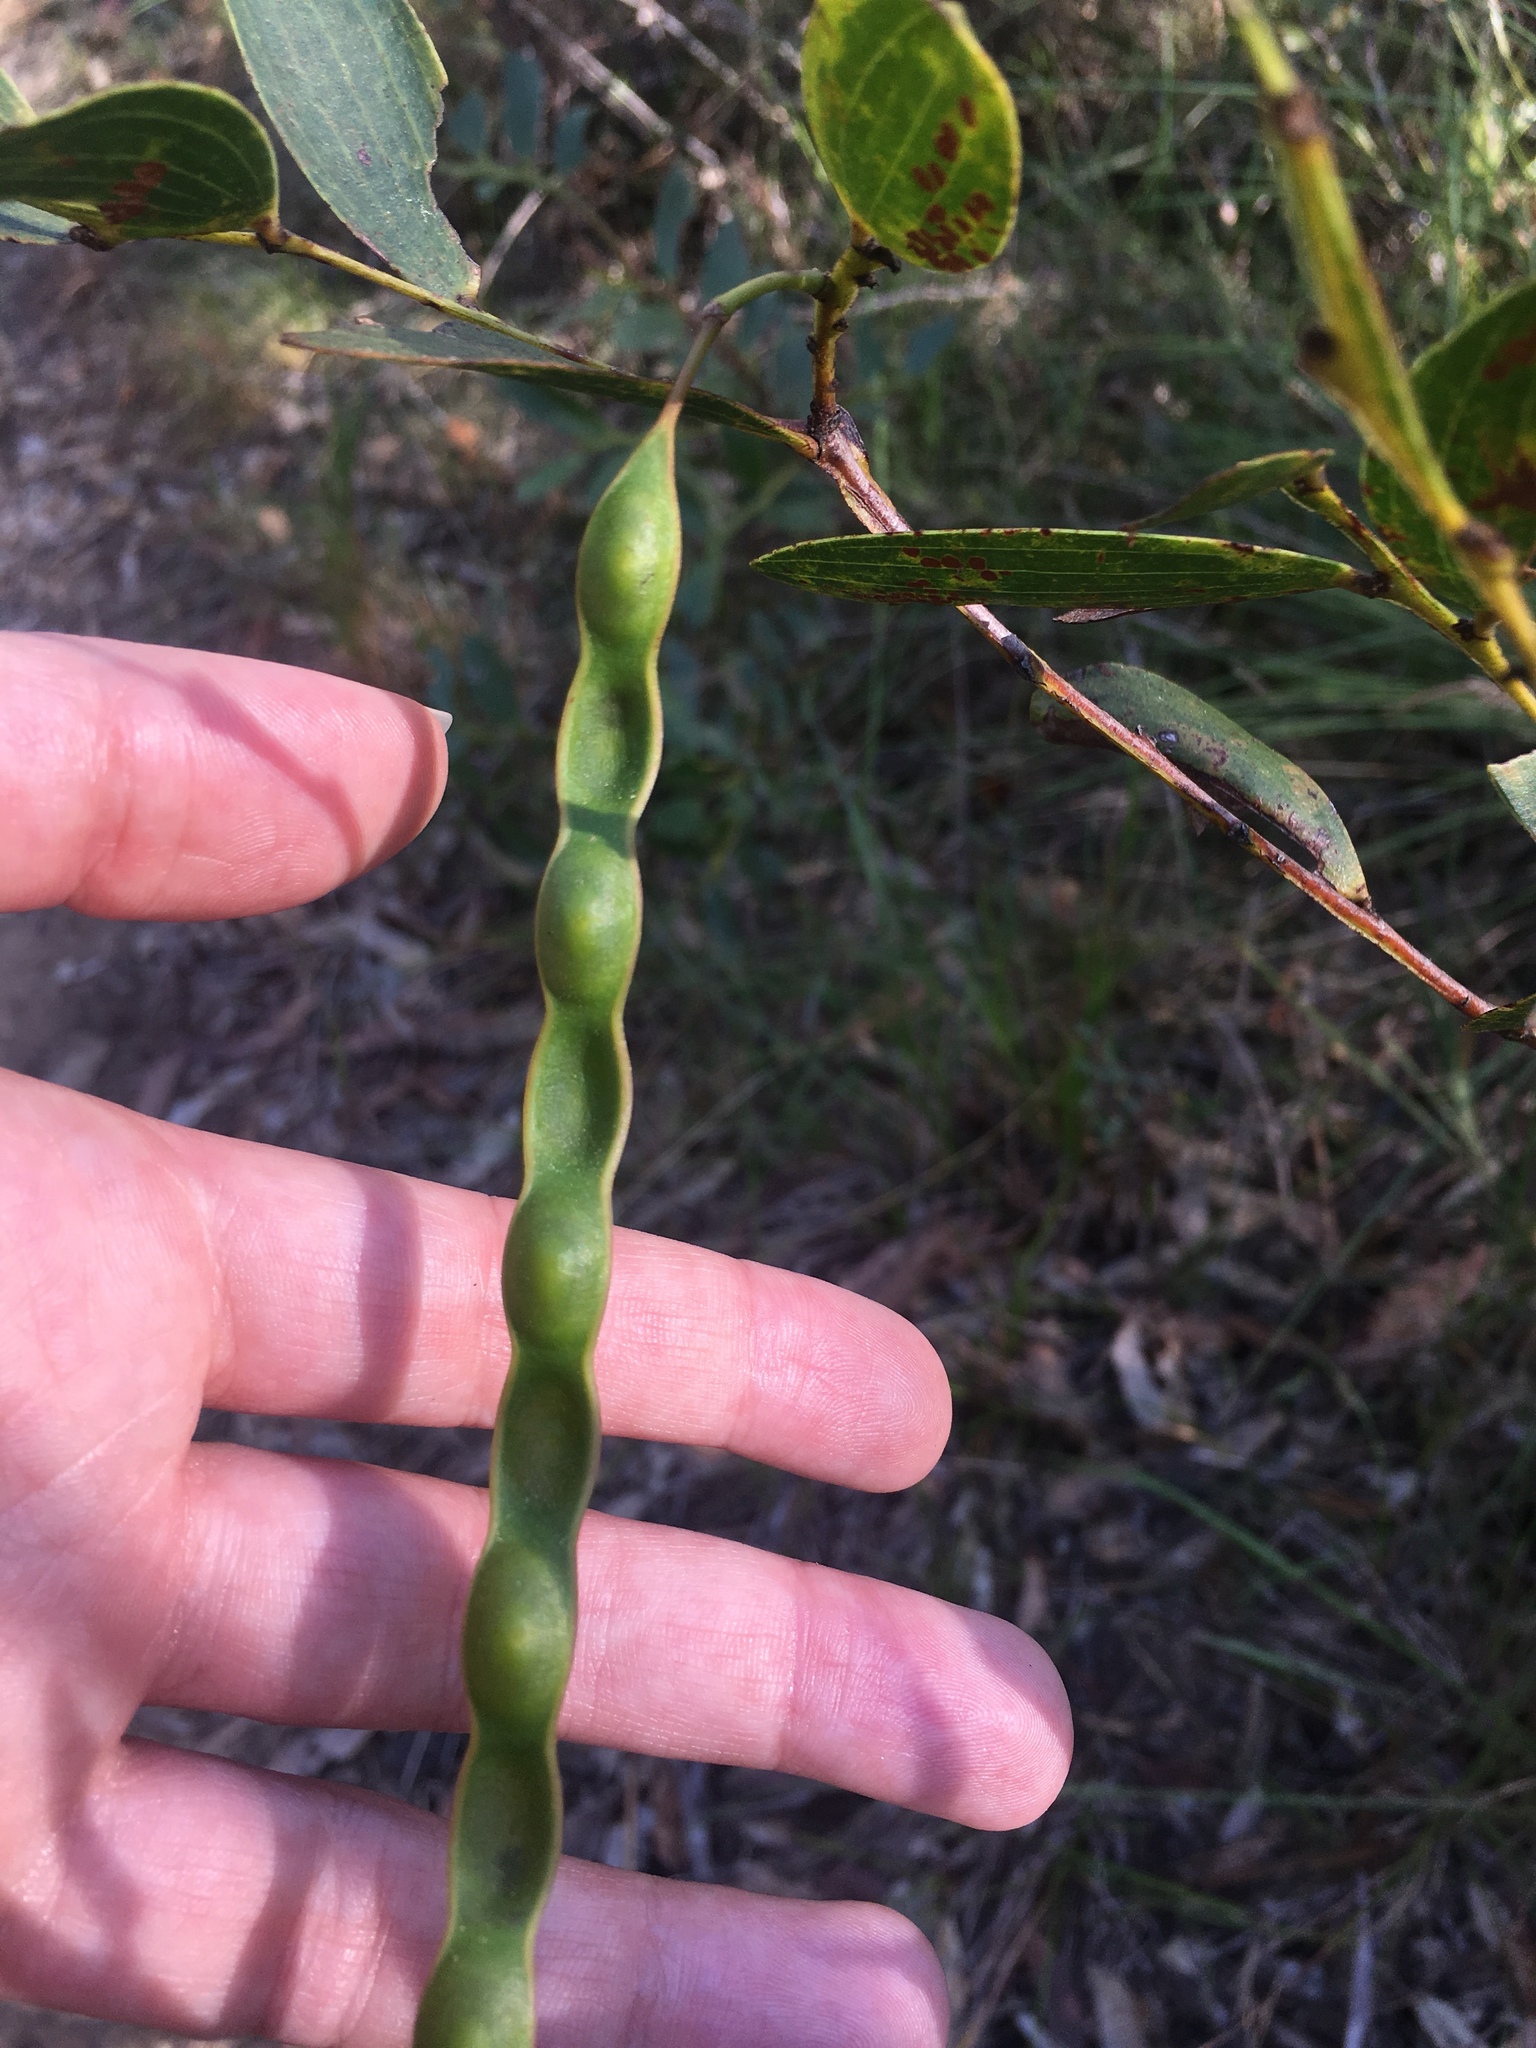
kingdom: Plantae
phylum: Tracheophyta
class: Magnoliopsida
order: Fabales
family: Fabaceae
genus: Acacia
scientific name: Acacia complanata
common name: Flat-stemmed wattle
